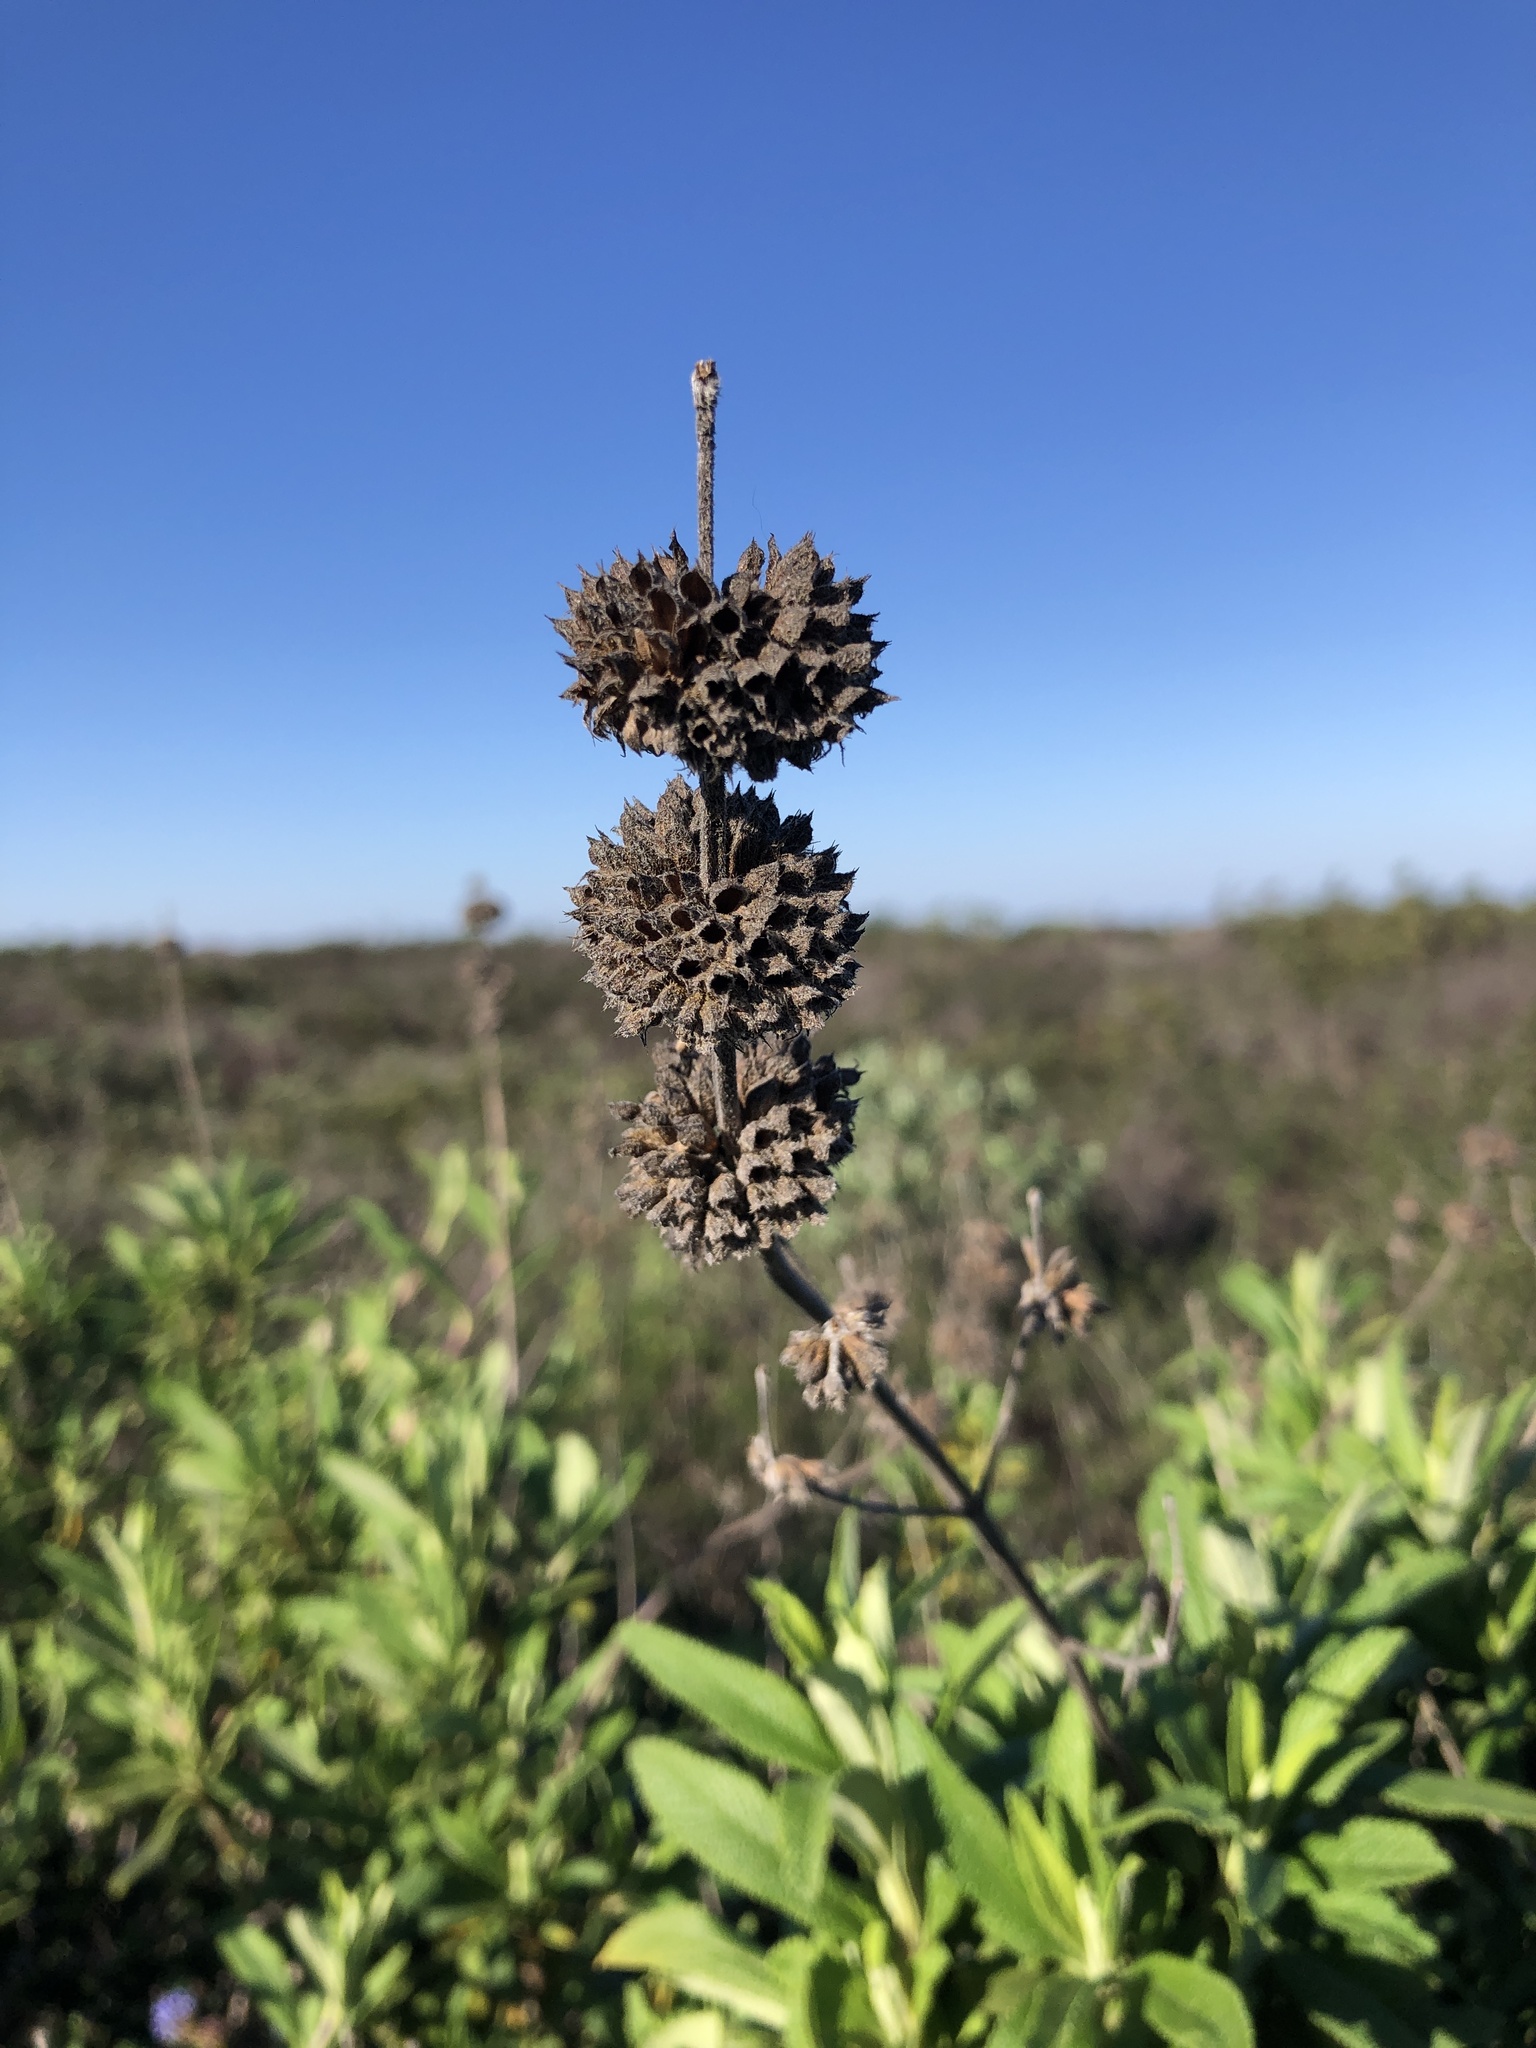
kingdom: Plantae
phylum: Tracheophyta
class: Magnoliopsida
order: Lamiales
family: Lamiaceae
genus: Salvia
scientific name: Salvia mellifera
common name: Black sage
